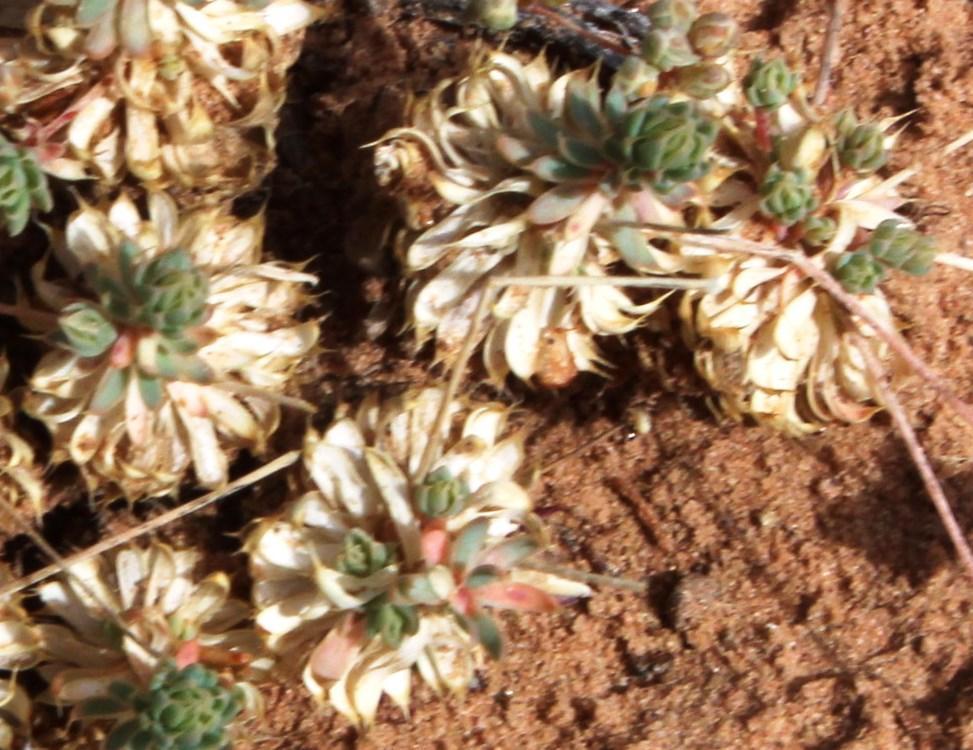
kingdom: Plantae
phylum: Tracheophyta
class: Magnoliopsida
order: Caryophyllales
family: Molluginaceae
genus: Psammotropha
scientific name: Psammotropha frigida
